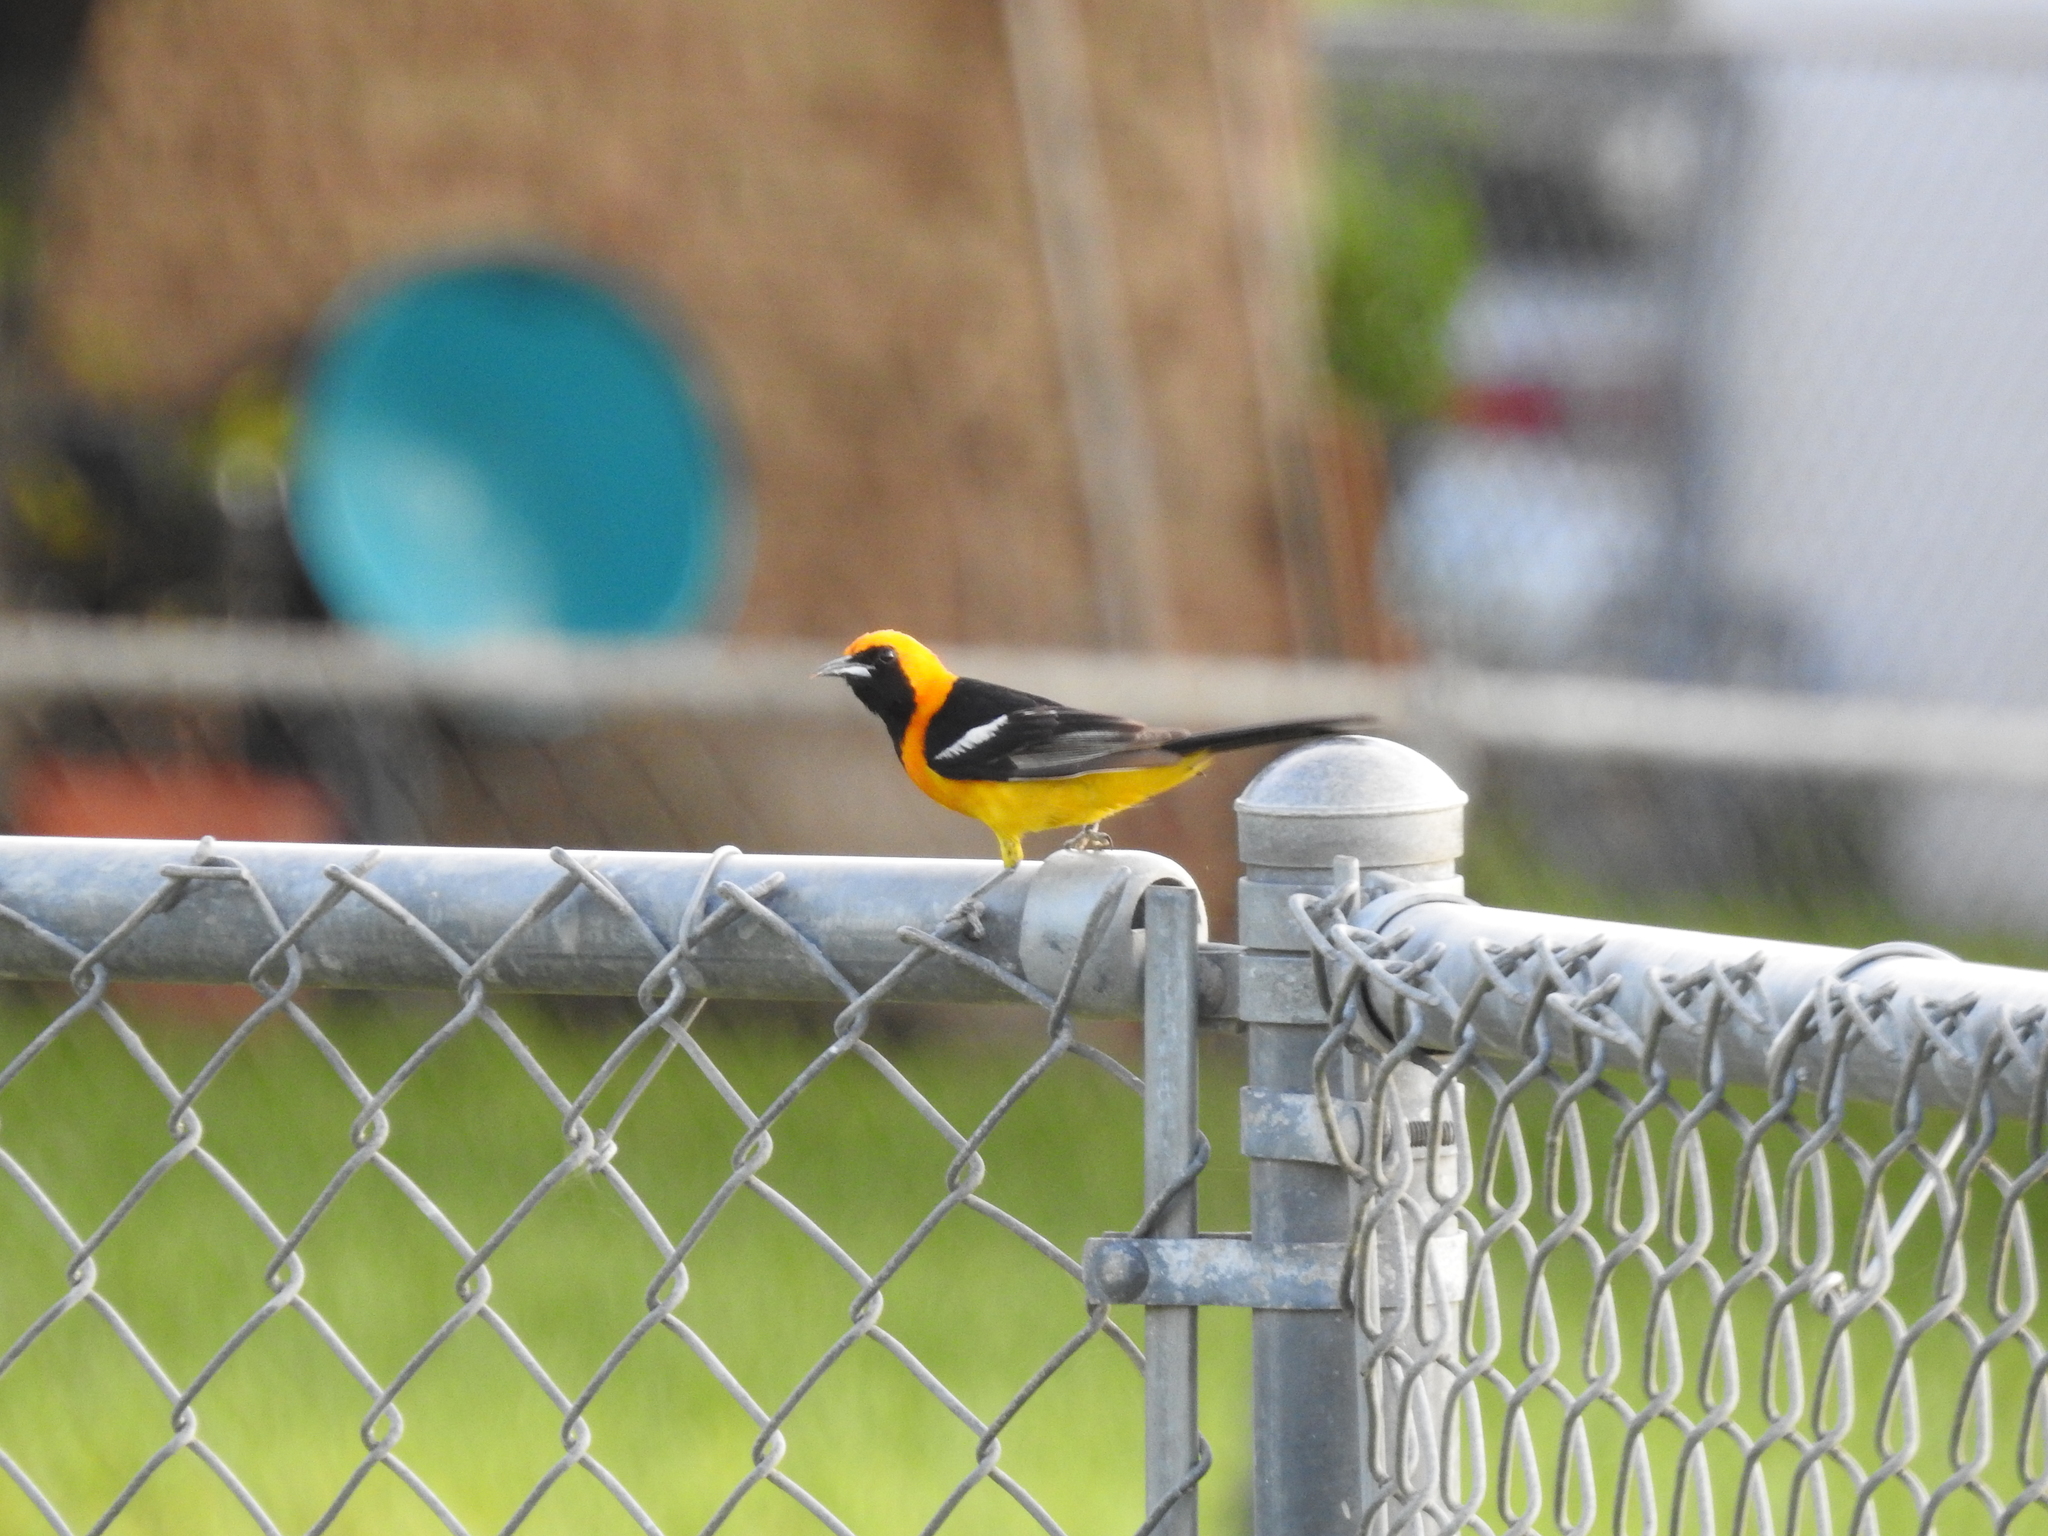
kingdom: Animalia
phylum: Chordata
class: Aves
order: Passeriformes
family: Icteridae
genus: Icterus
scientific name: Icterus cucullatus
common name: Hooded oriole
